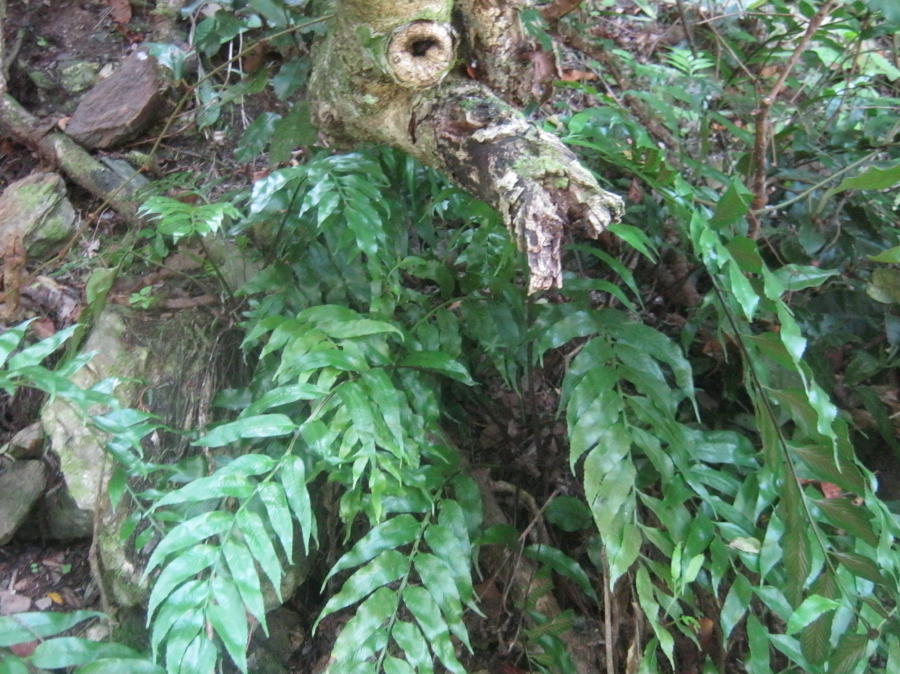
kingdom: Plantae
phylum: Tracheophyta
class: Polypodiopsida
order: Polypodiales
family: Aspleniaceae
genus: Asplenium
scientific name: Asplenium gemmiferum
